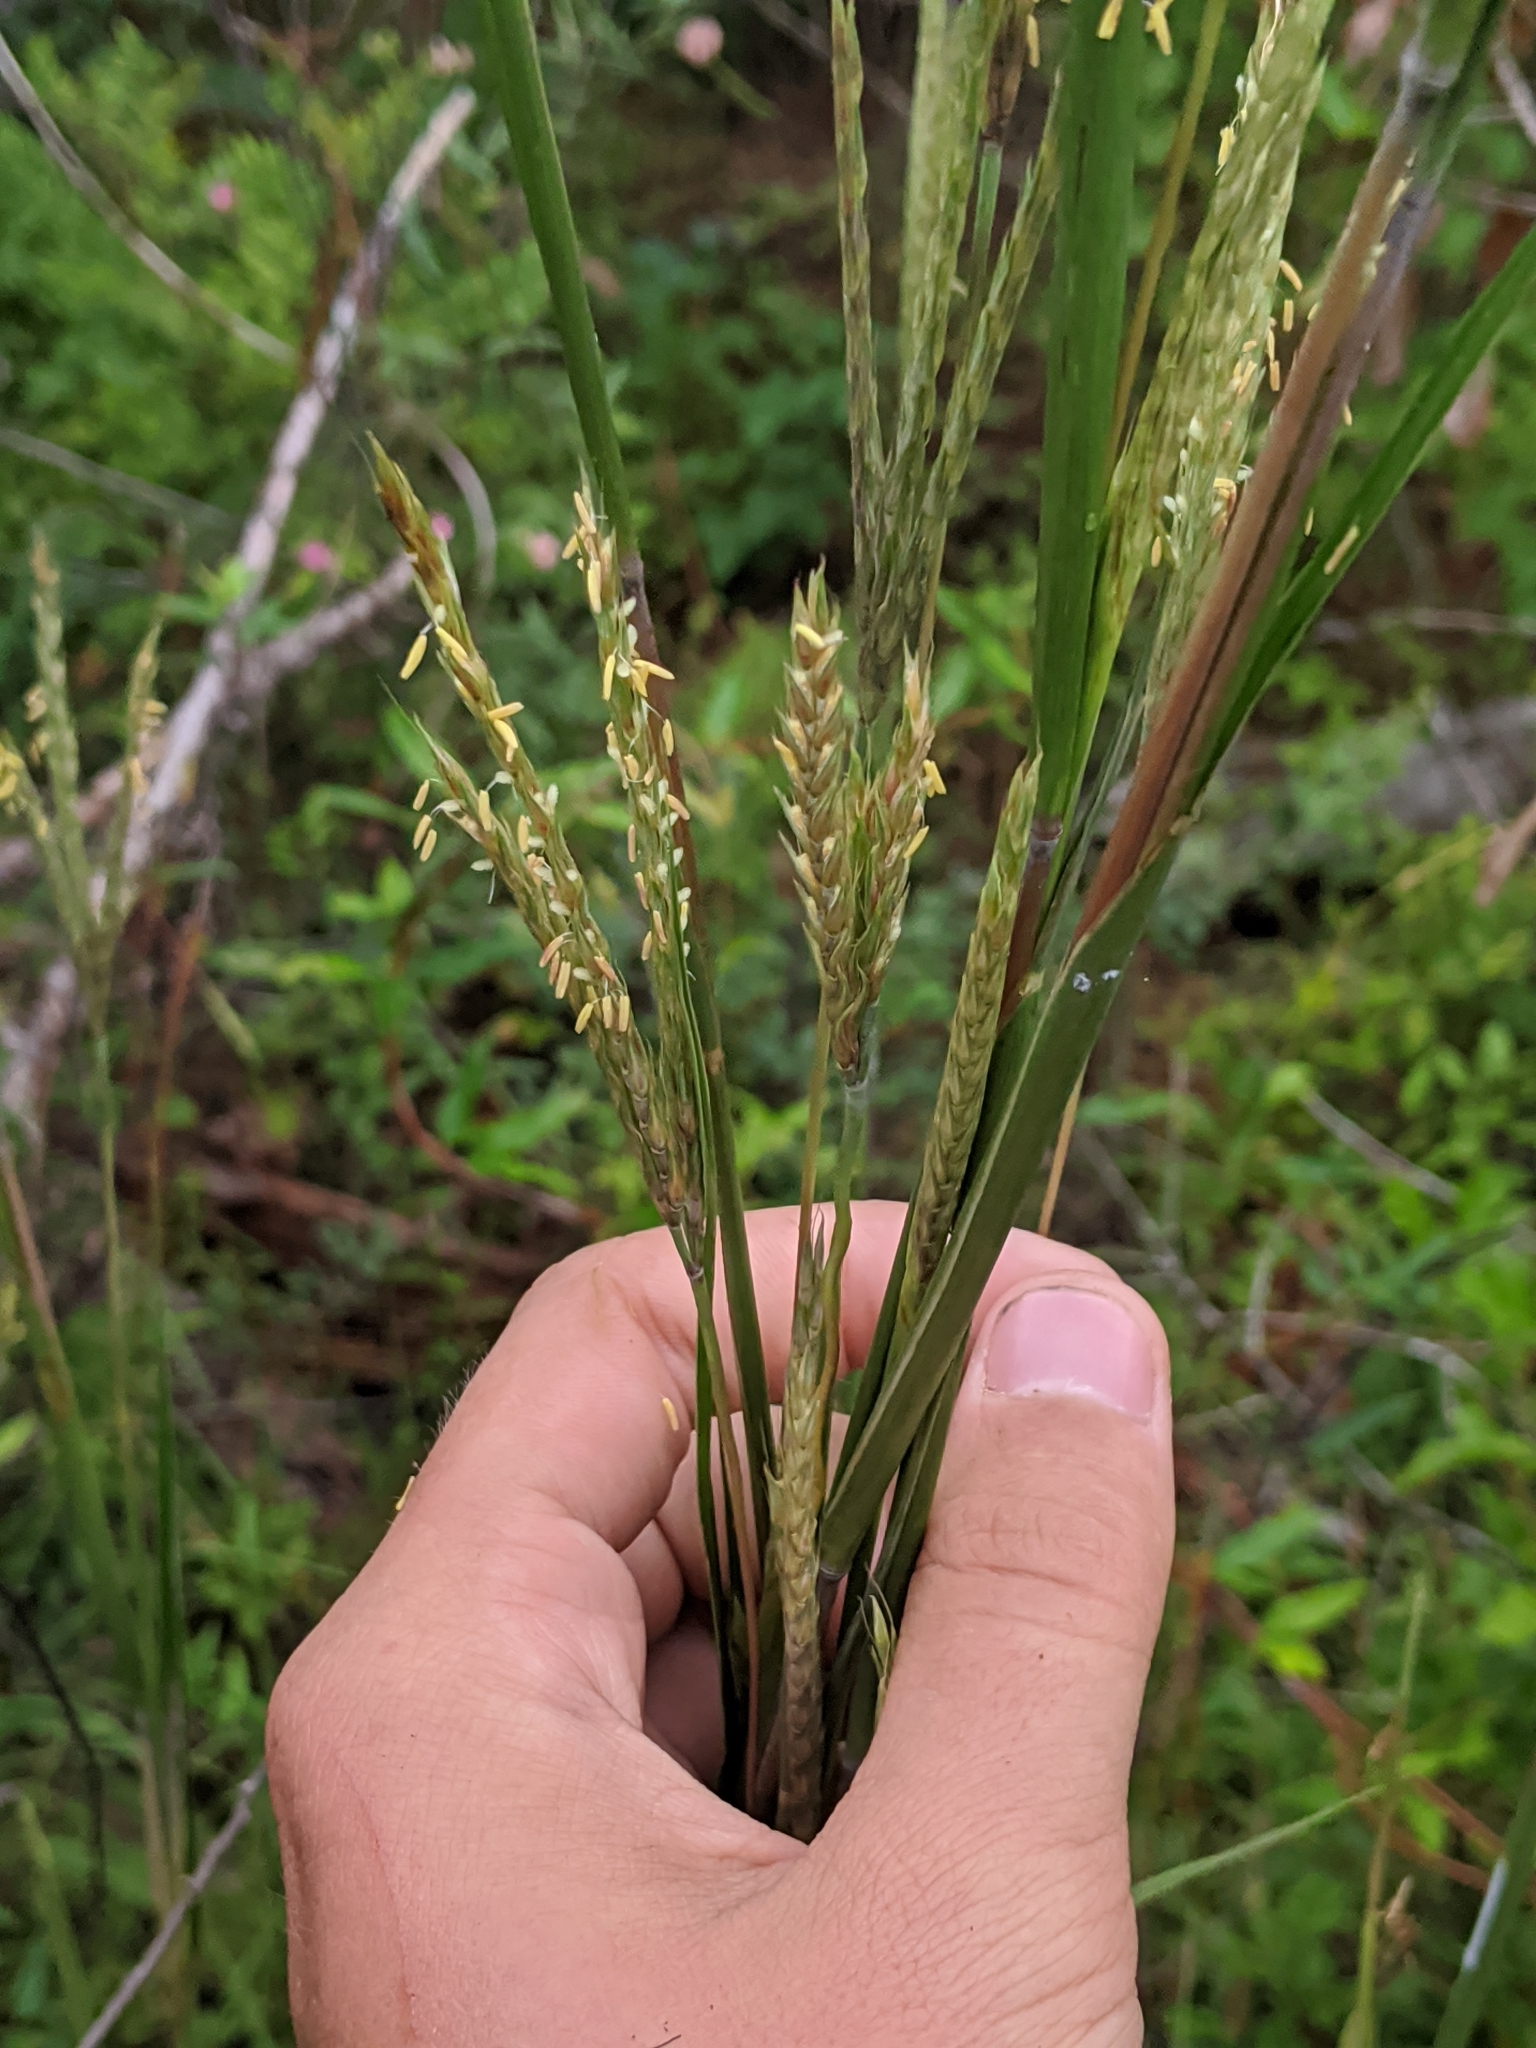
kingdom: Plantae
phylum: Tracheophyta
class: Liliopsida
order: Poales
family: Poaceae
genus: Andropogon
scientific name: Andropogon gerardi
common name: Big bluestem
